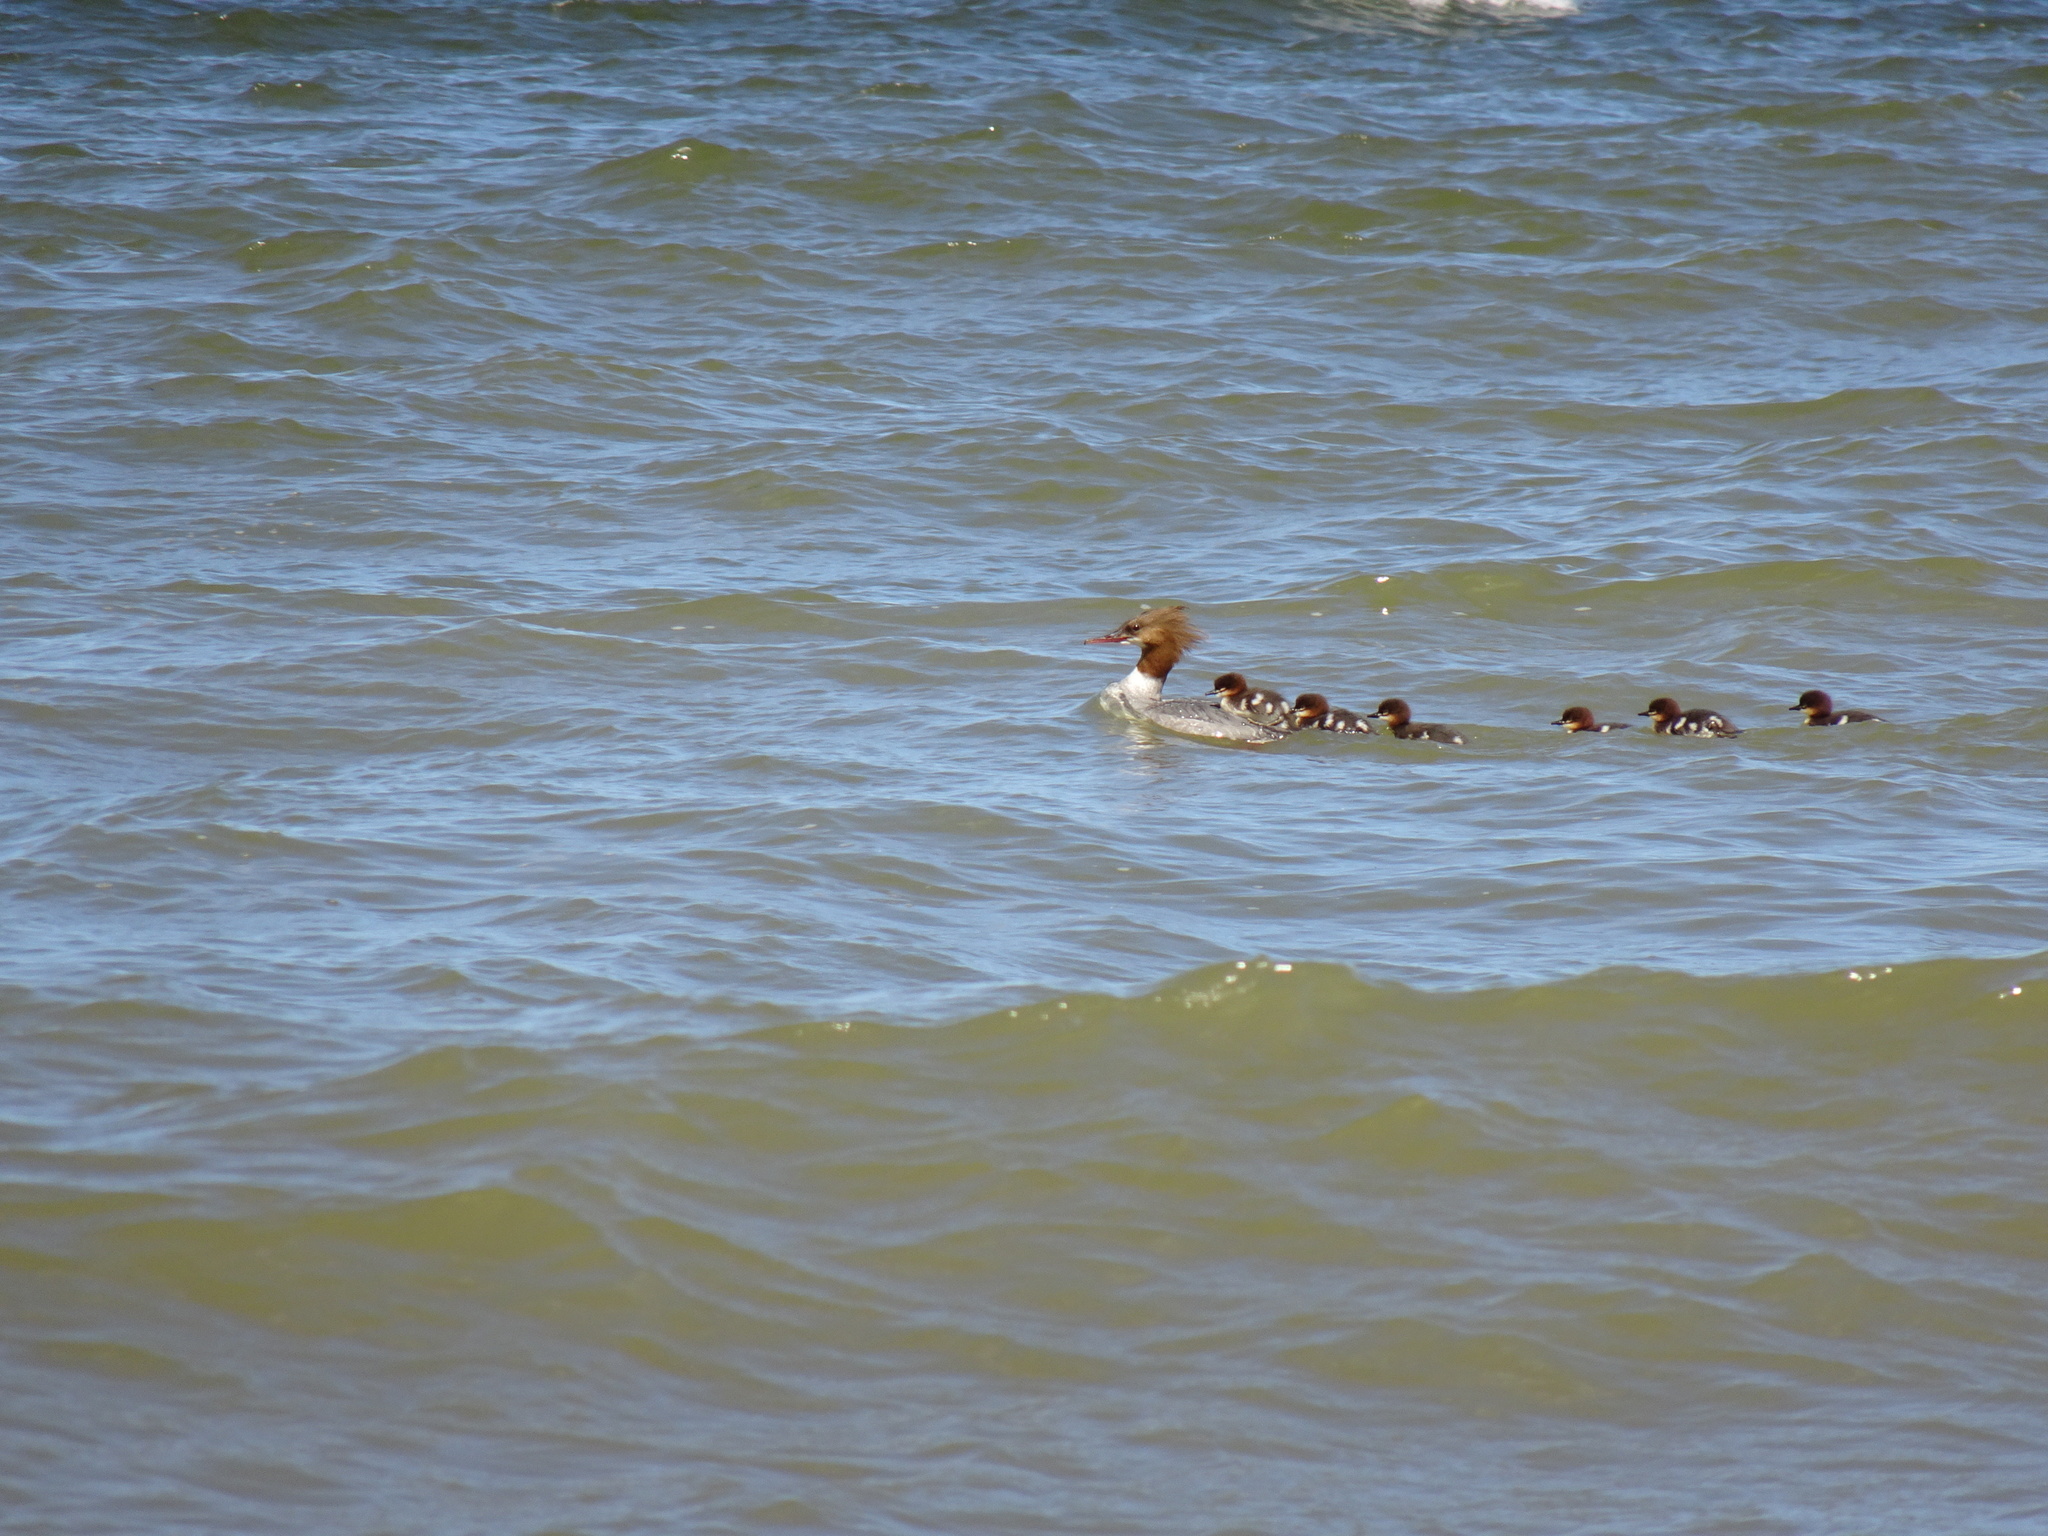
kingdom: Animalia
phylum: Chordata
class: Aves
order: Anseriformes
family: Anatidae
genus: Mergus
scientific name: Mergus merganser
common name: Common merganser
